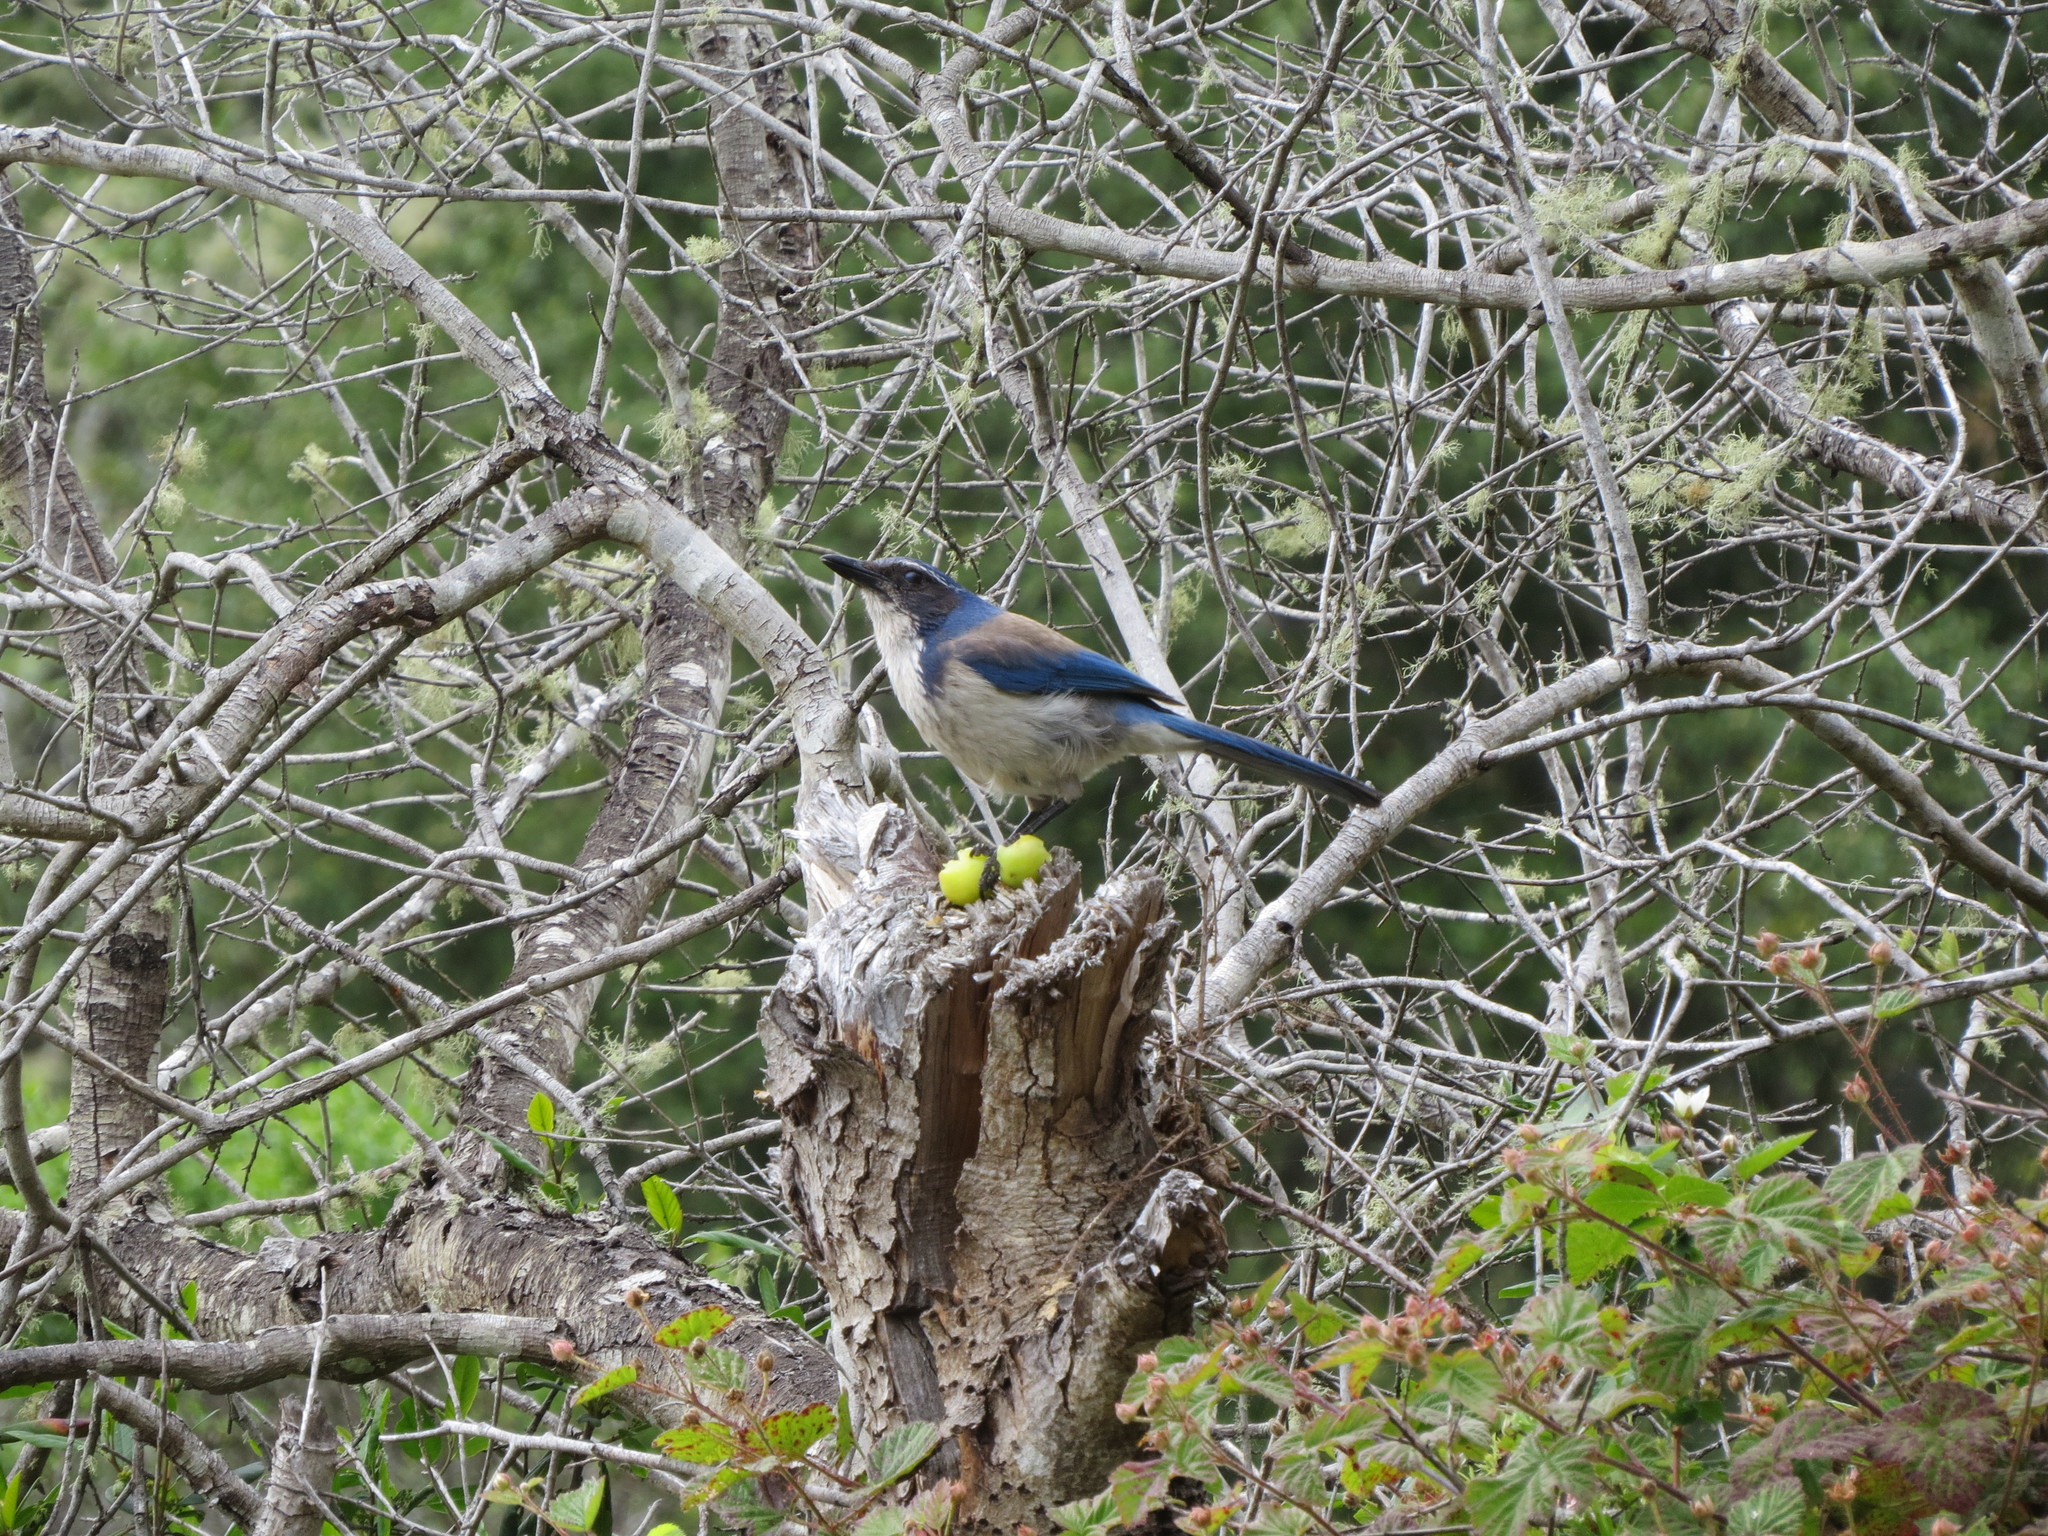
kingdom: Animalia
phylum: Chordata
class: Aves
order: Passeriformes
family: Corvidae
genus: Aphelocoma
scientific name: Aphelocoma californica
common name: California scrub-jay
